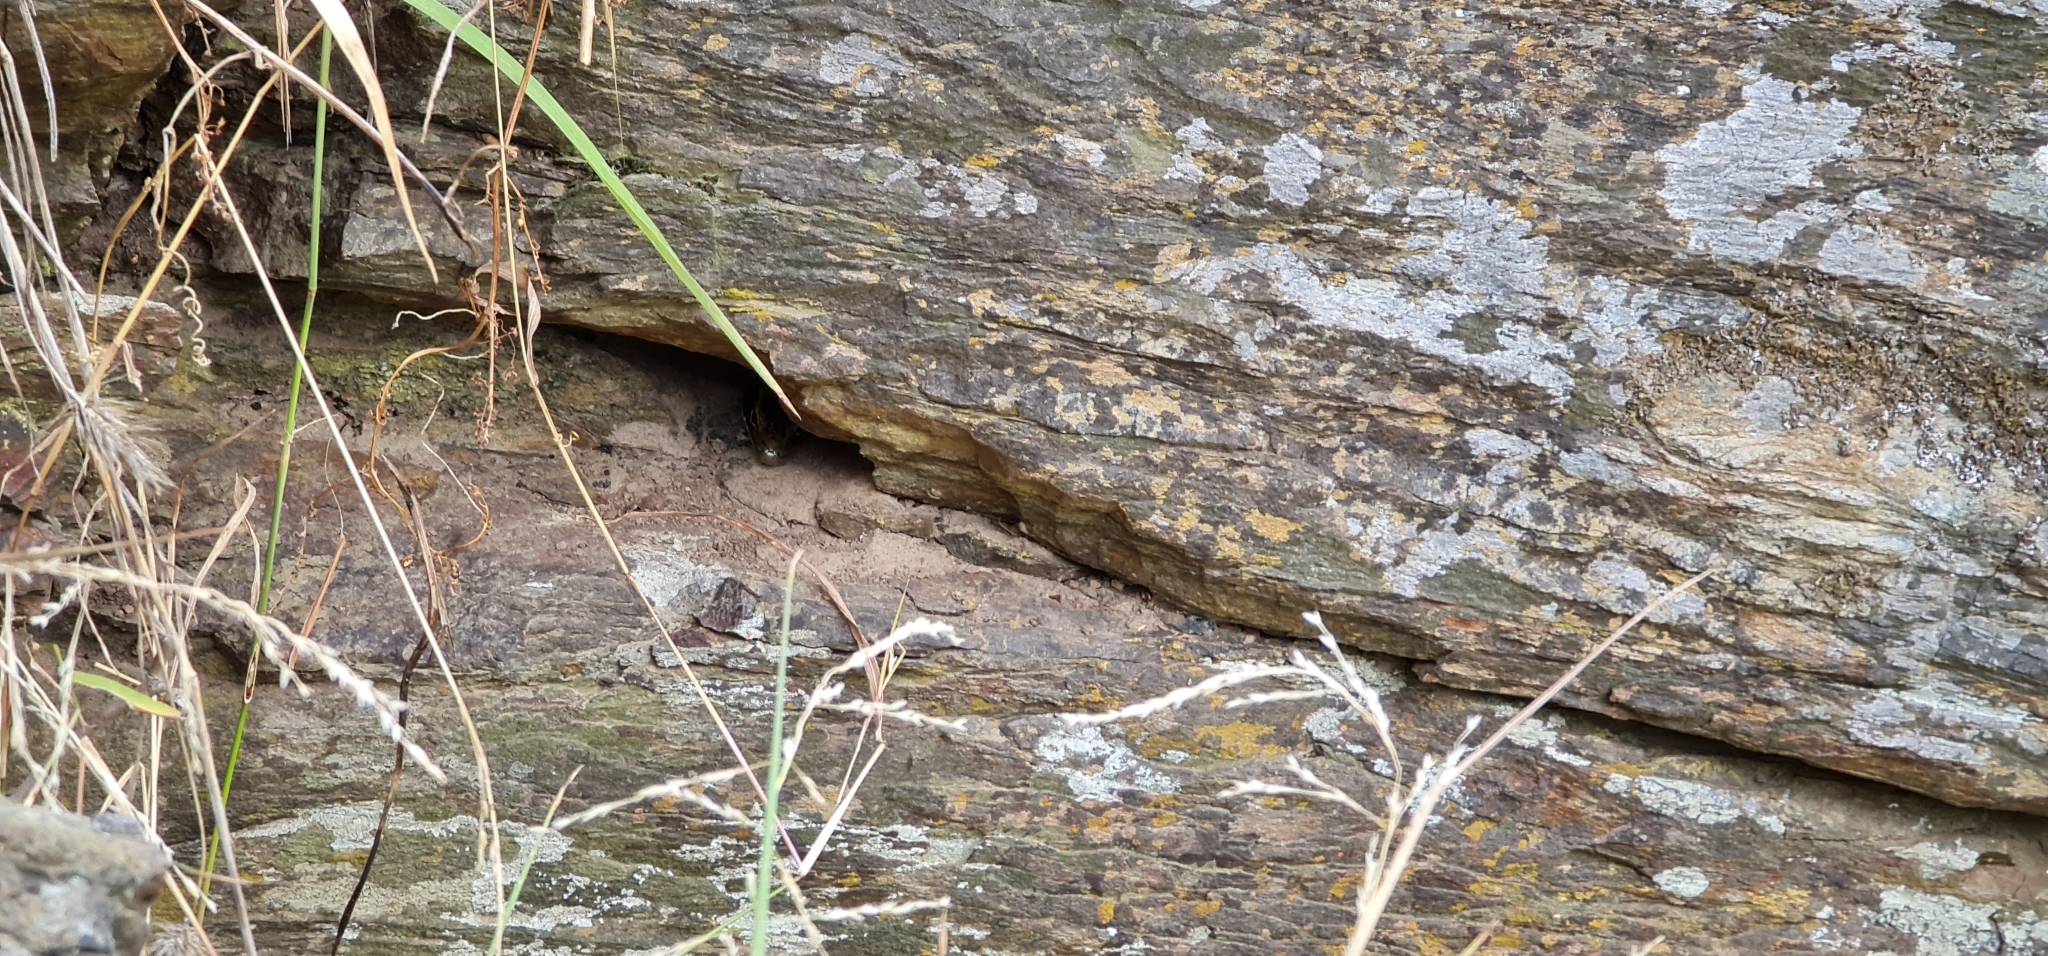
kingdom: Animalia
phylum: Chordata
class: Squamata
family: Scincidae
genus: Eulamprus
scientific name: Eulamprus quoyii
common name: Eastern water skink
